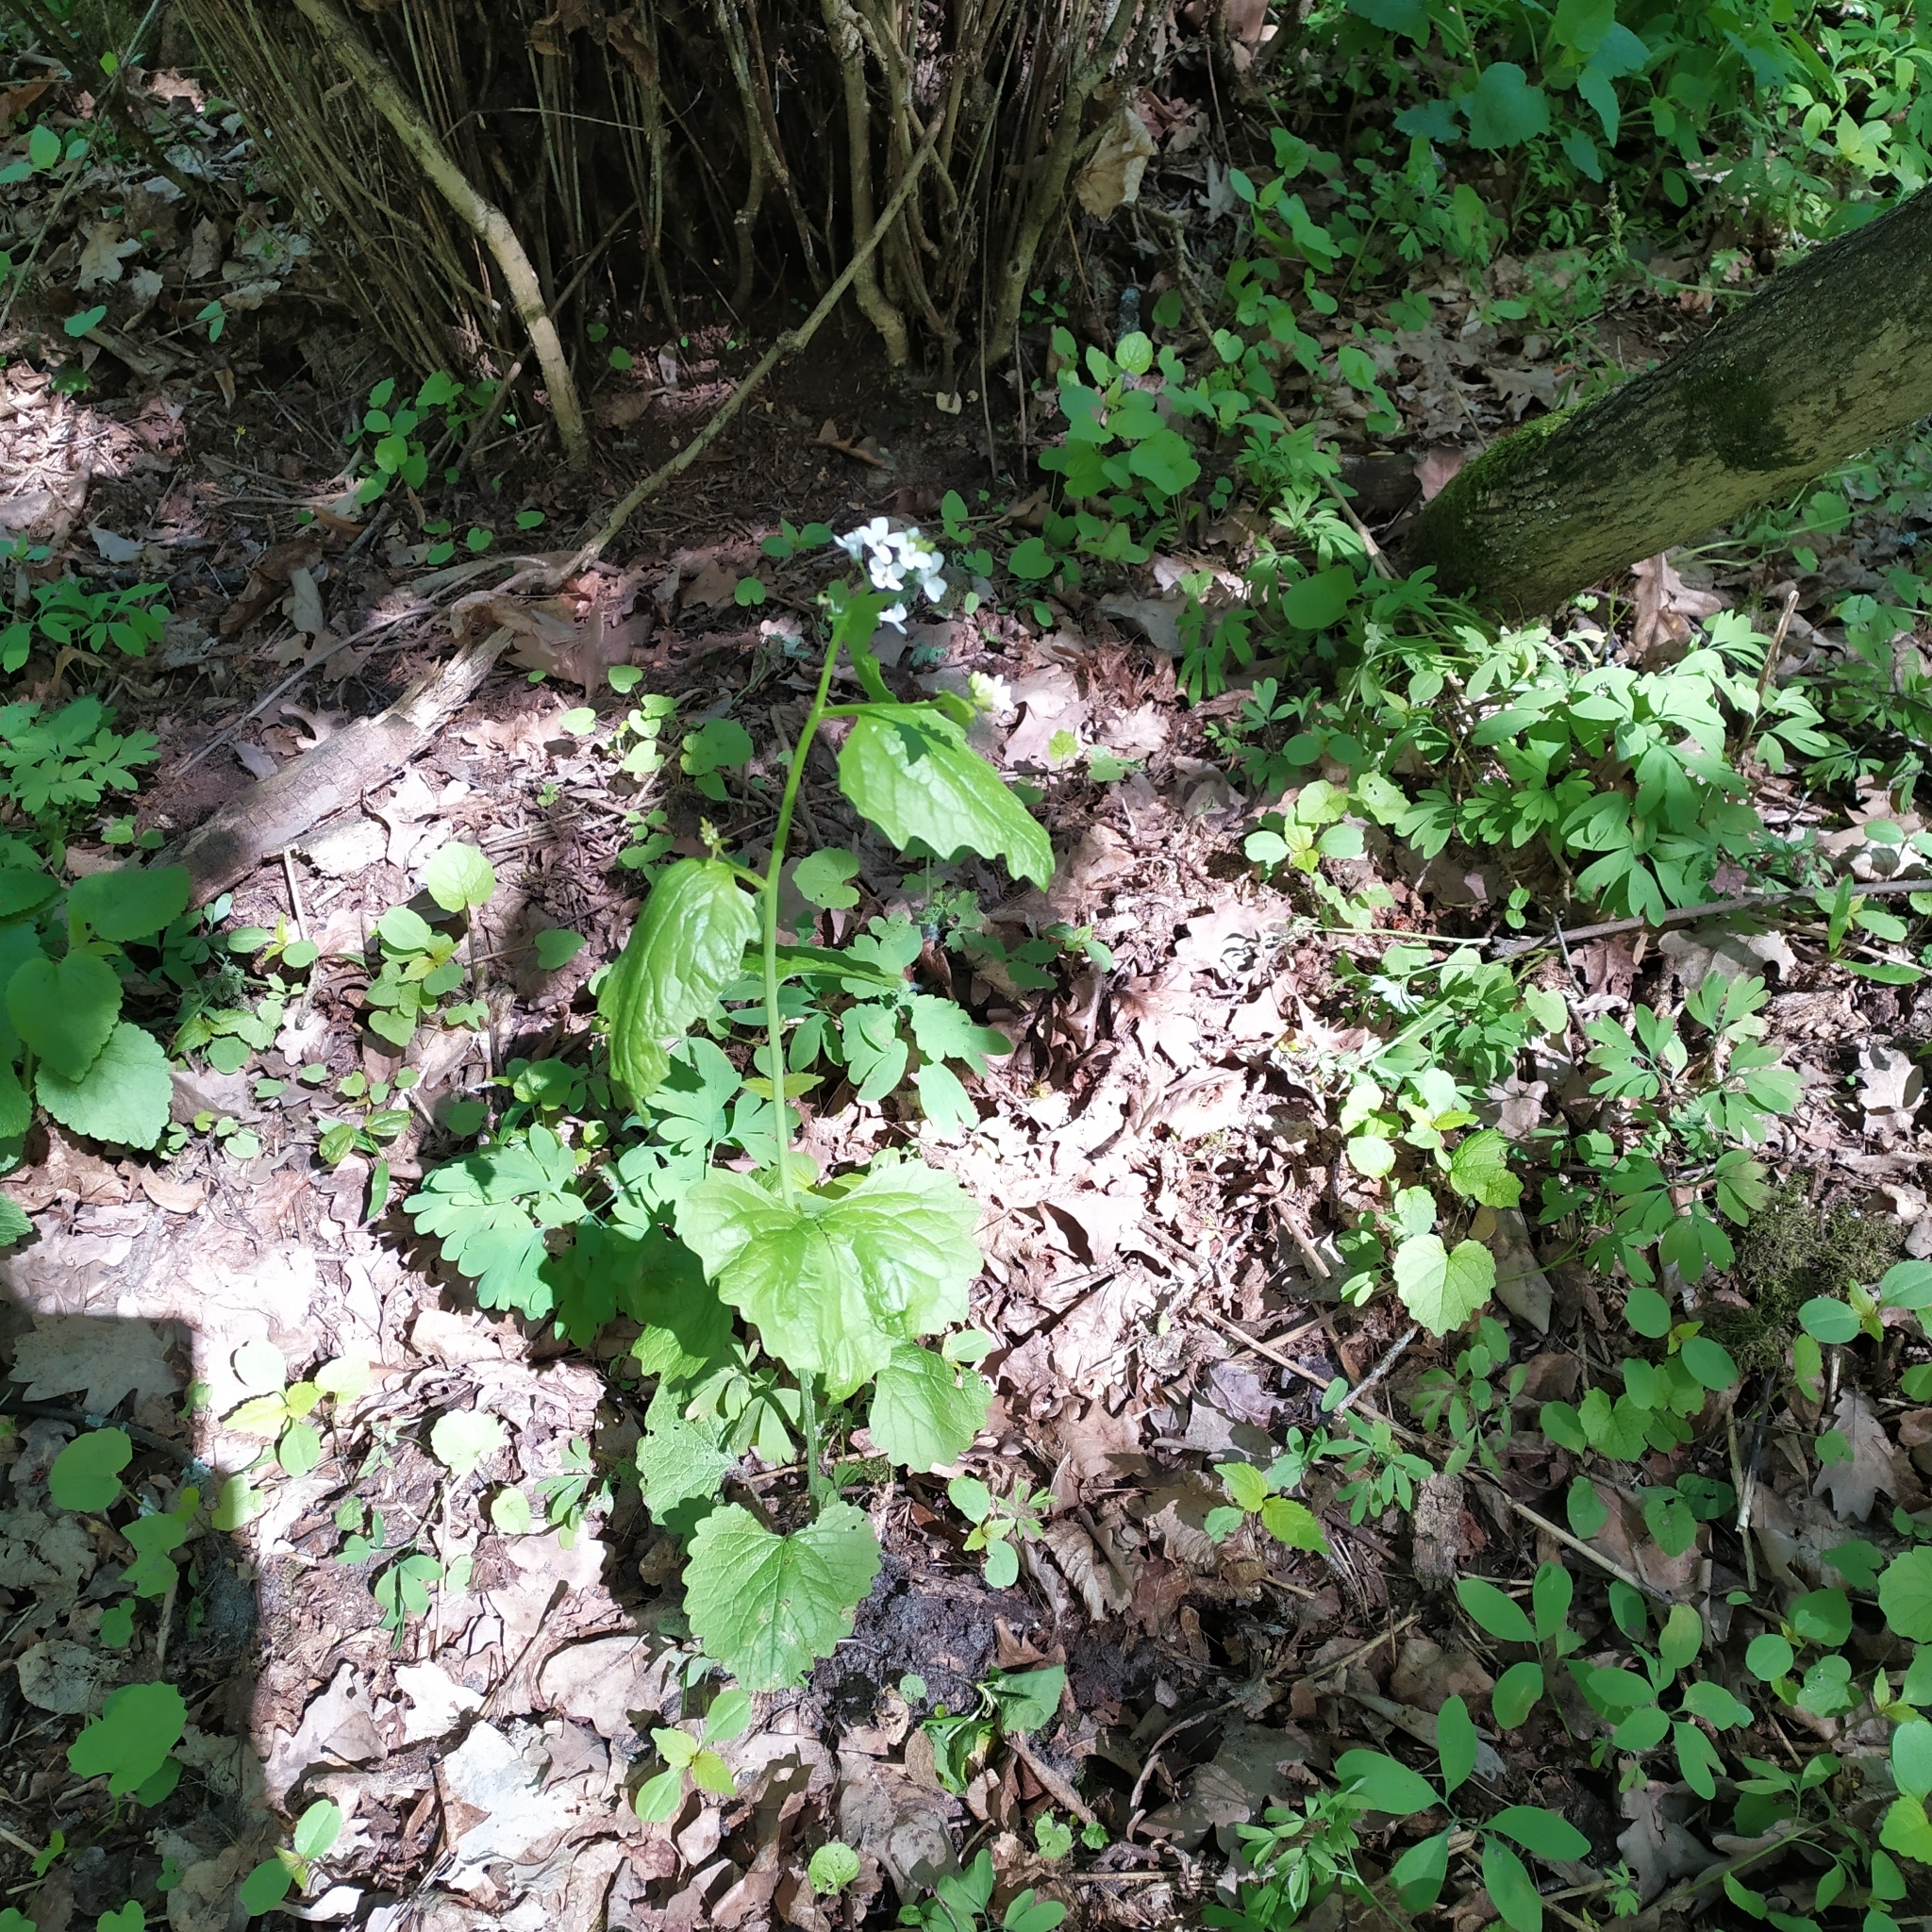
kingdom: Plantae
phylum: Tracheophyta
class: Magnoliopsida
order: Brassicales
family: Brassicaceae
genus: Alliaria
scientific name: Alliaria petiolata
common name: Garlic mustard
